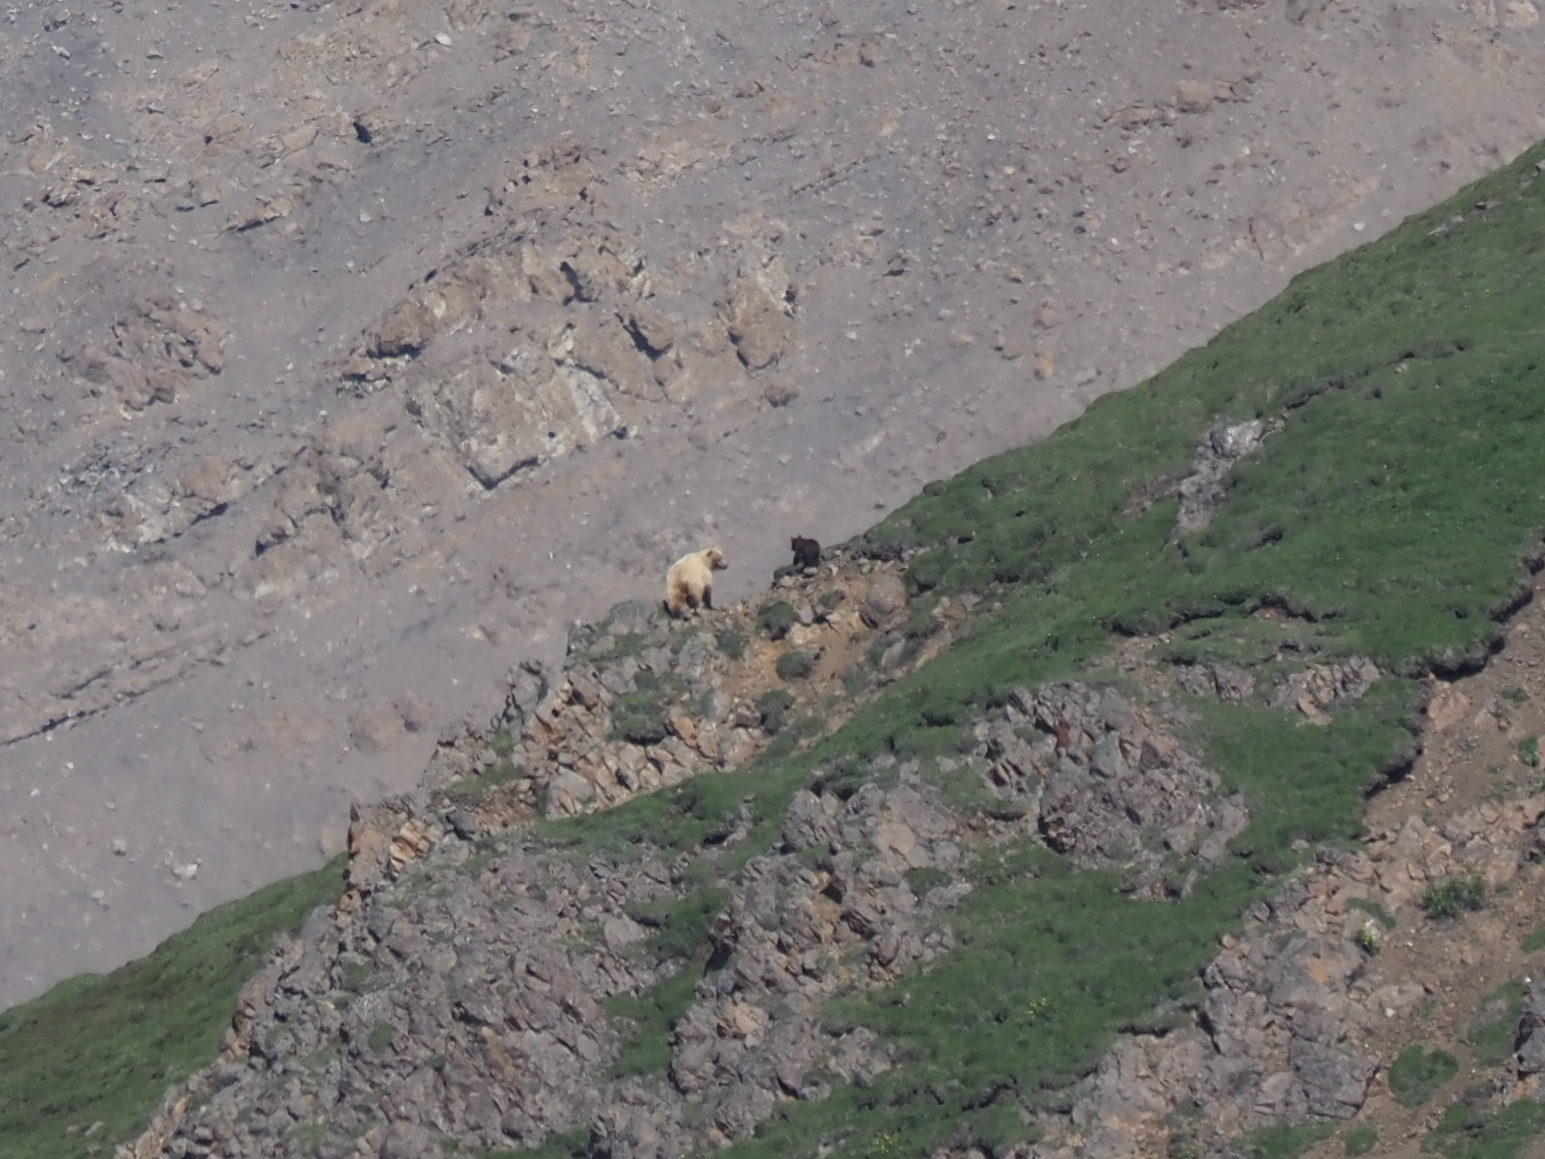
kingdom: Animalia
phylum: Chordata
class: Mammalia
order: Carnivora
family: Ursidae
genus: Ursus
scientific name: Ursus arctos
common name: Brown bear
